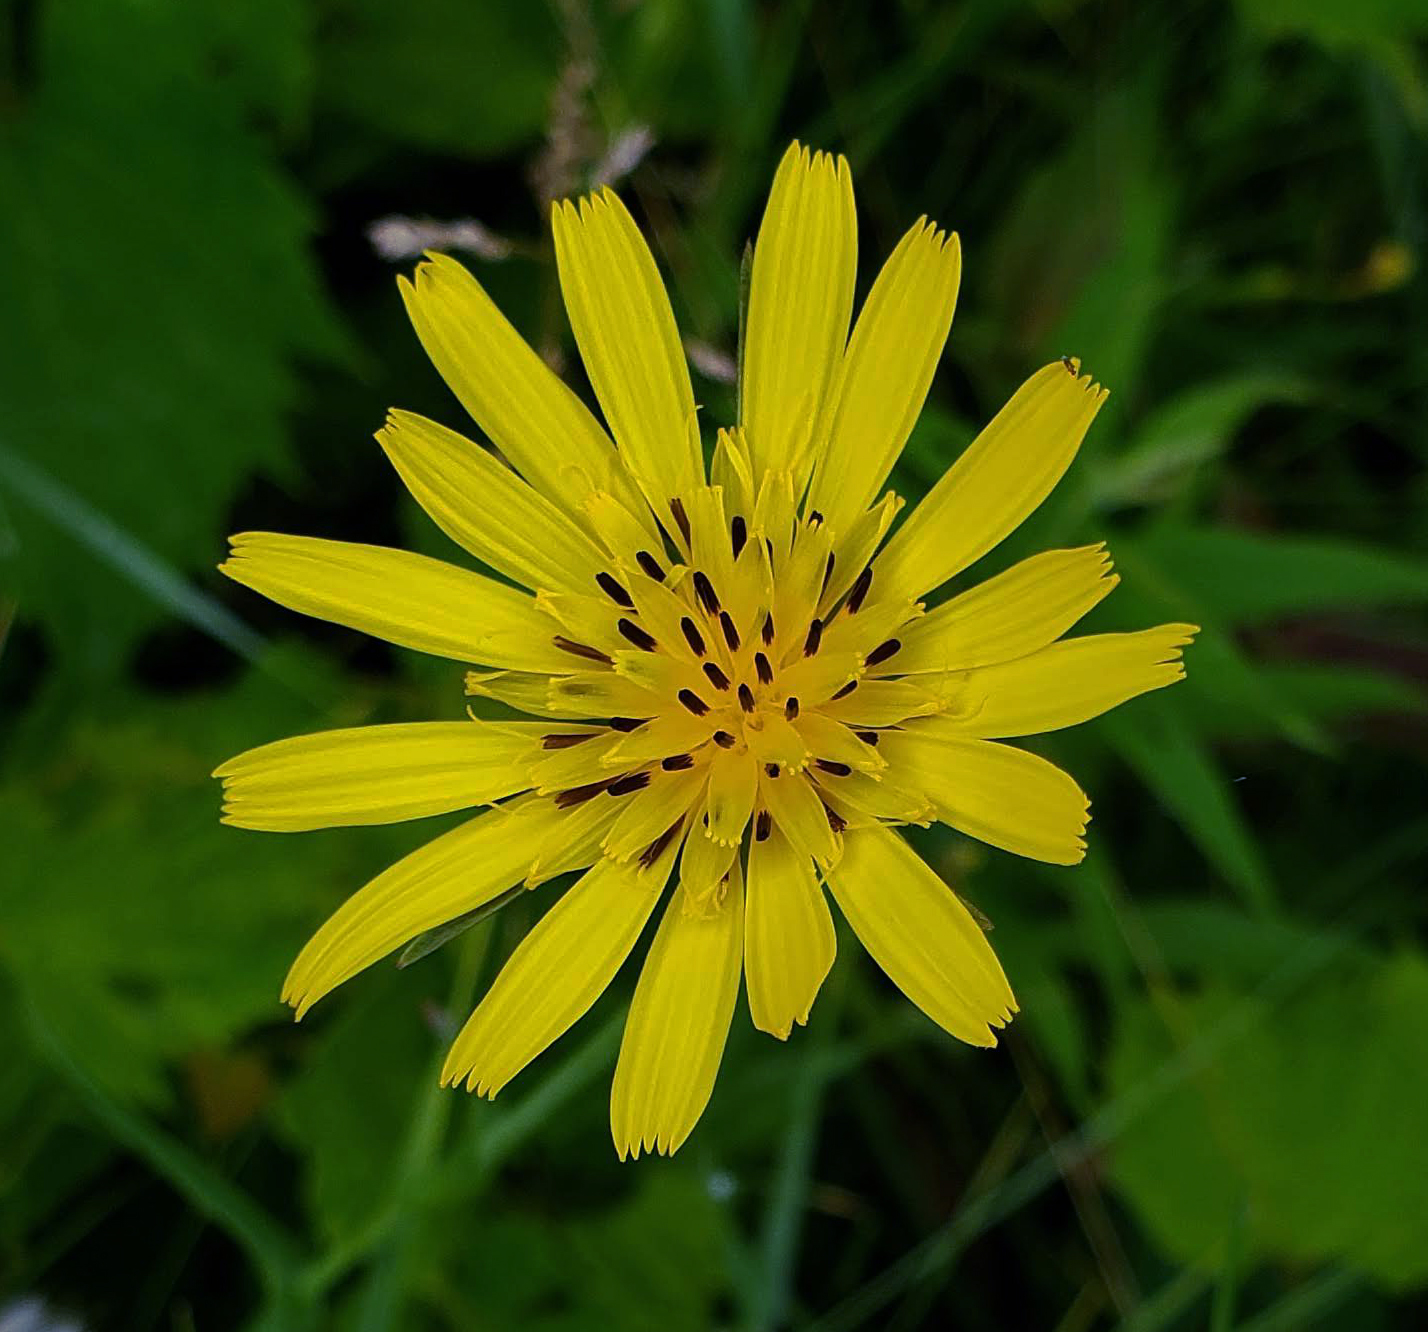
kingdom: Plantae
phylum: Tracheophyta
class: Magnoliopsida
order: Asterales
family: Asteraceae
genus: Tragopogon
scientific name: Tragopogon pratensis
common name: Goat's-beard
